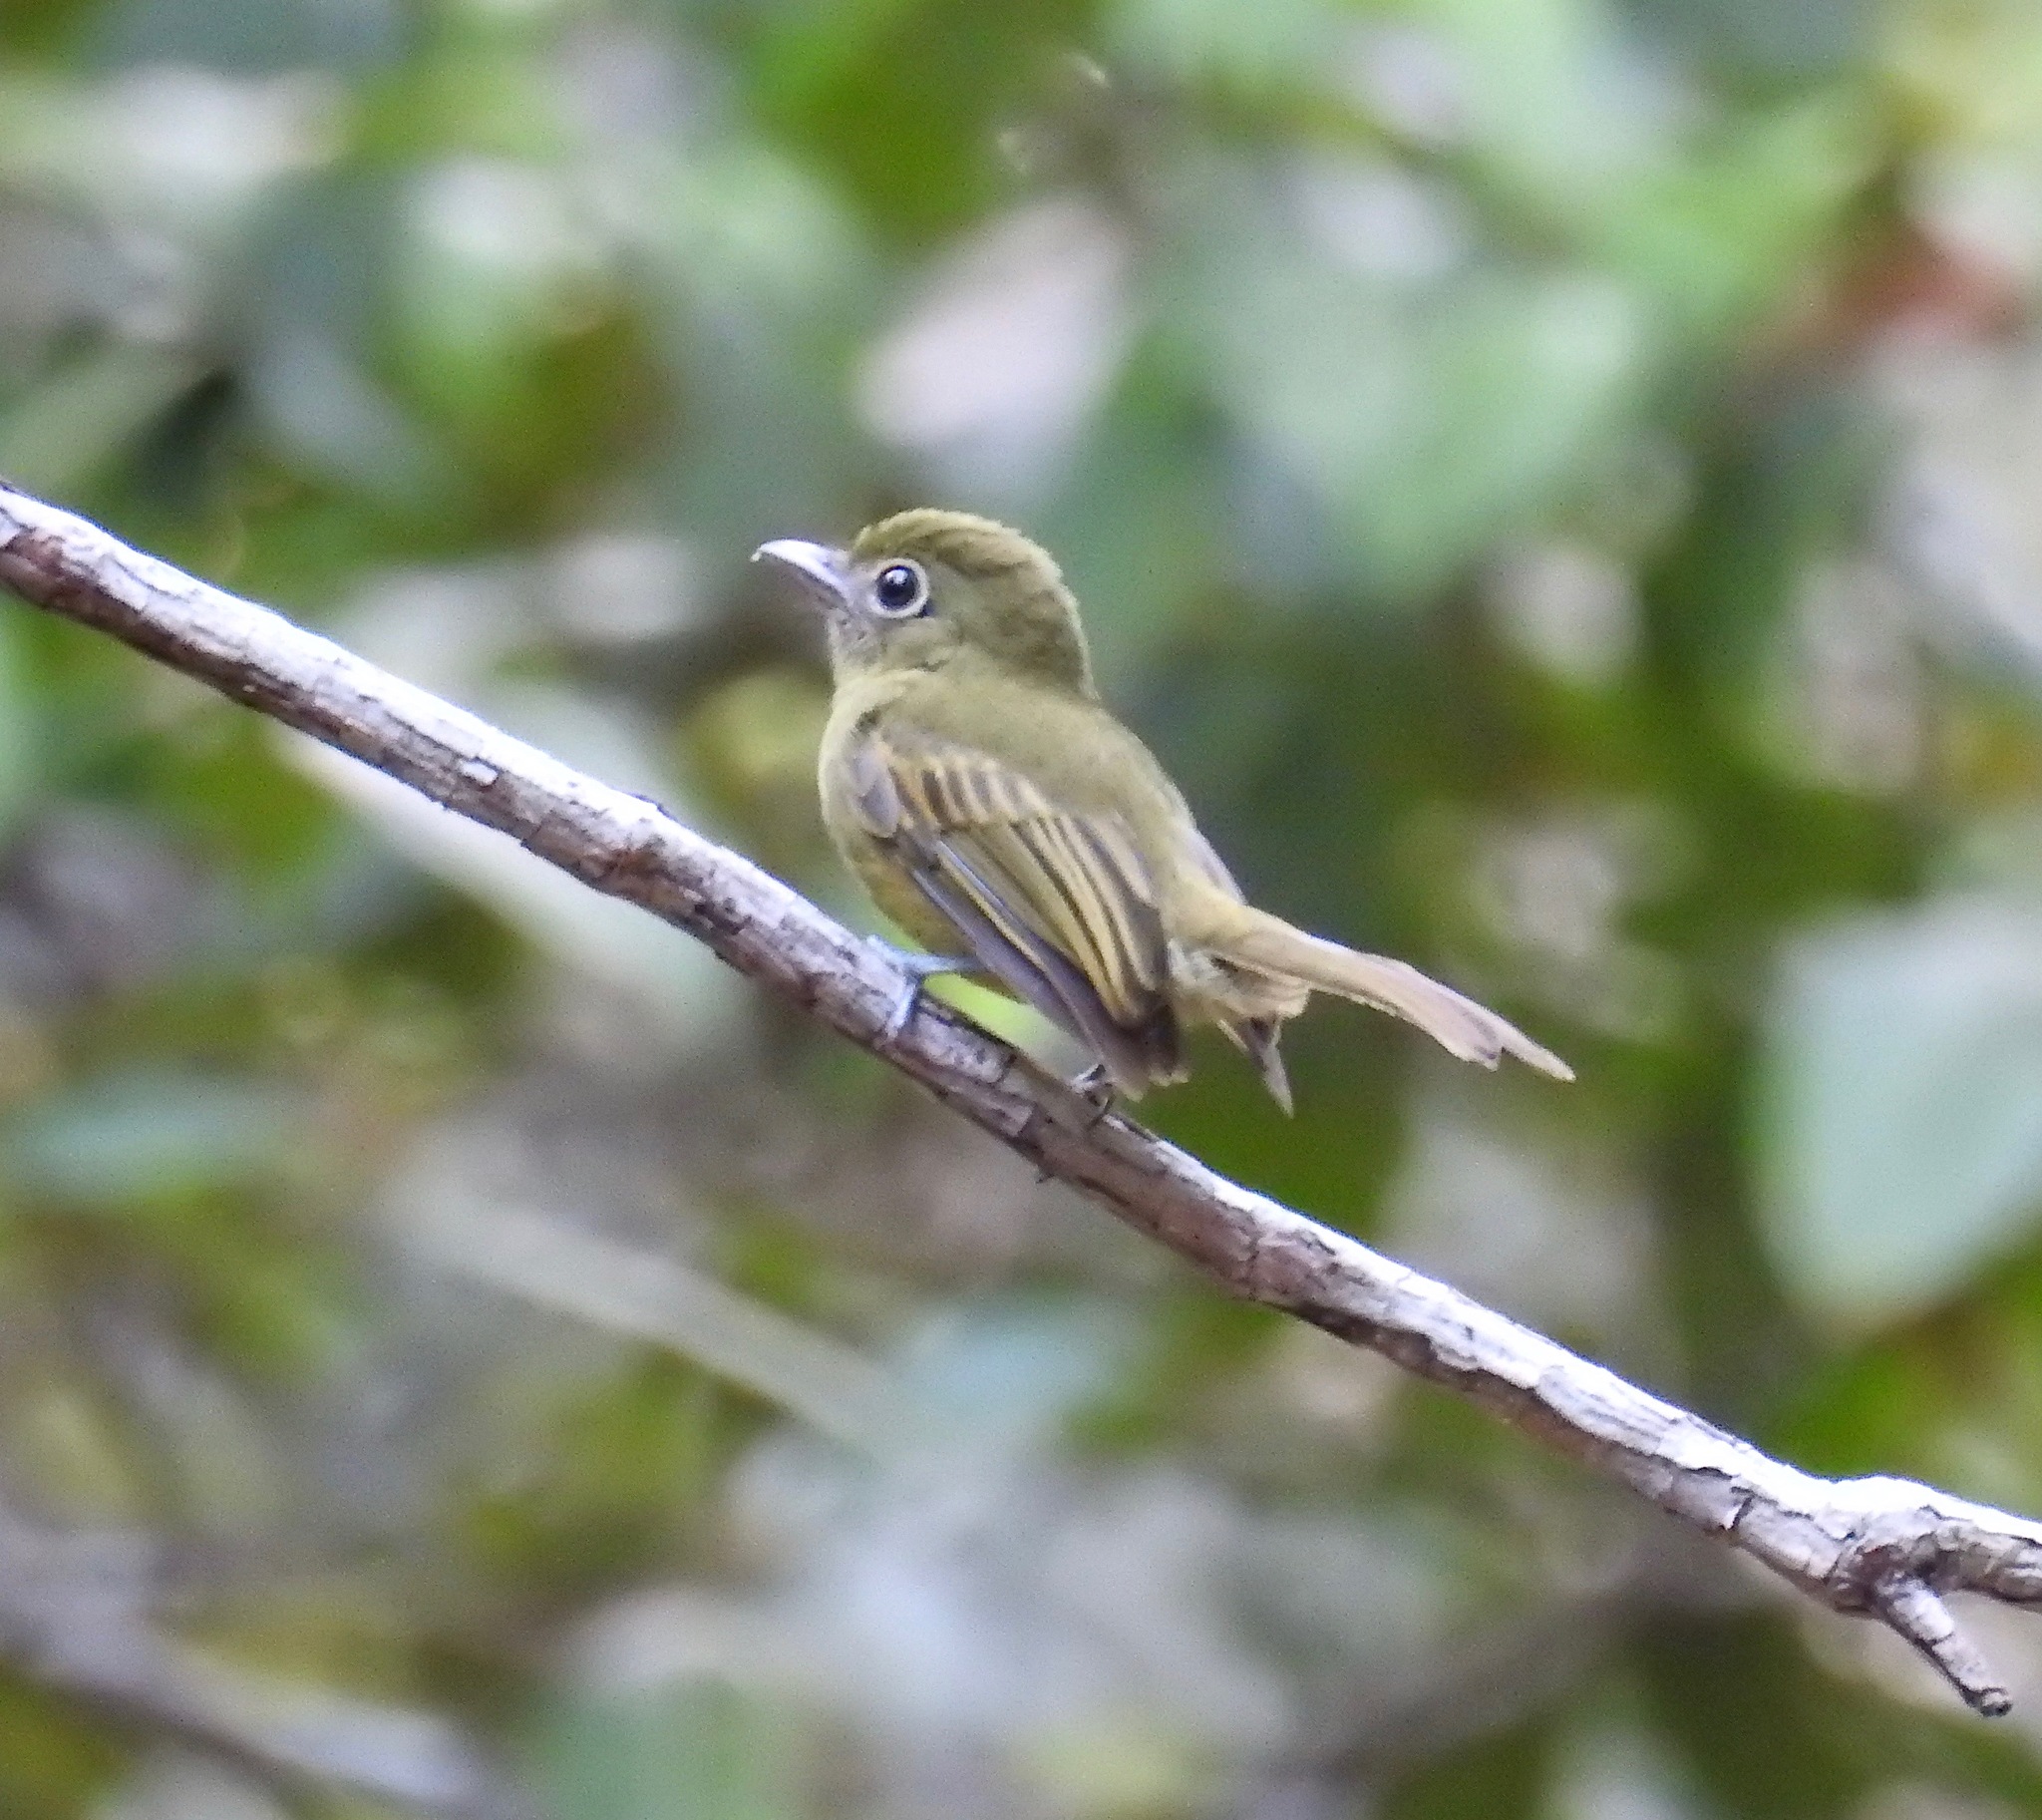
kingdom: Animalia
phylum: Chordata
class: Aves
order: Passeriformes
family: Tyrannidae
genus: Rhynchocyclus
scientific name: Rhynchocyclus olivaceus
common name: Olivaceous flatbill
